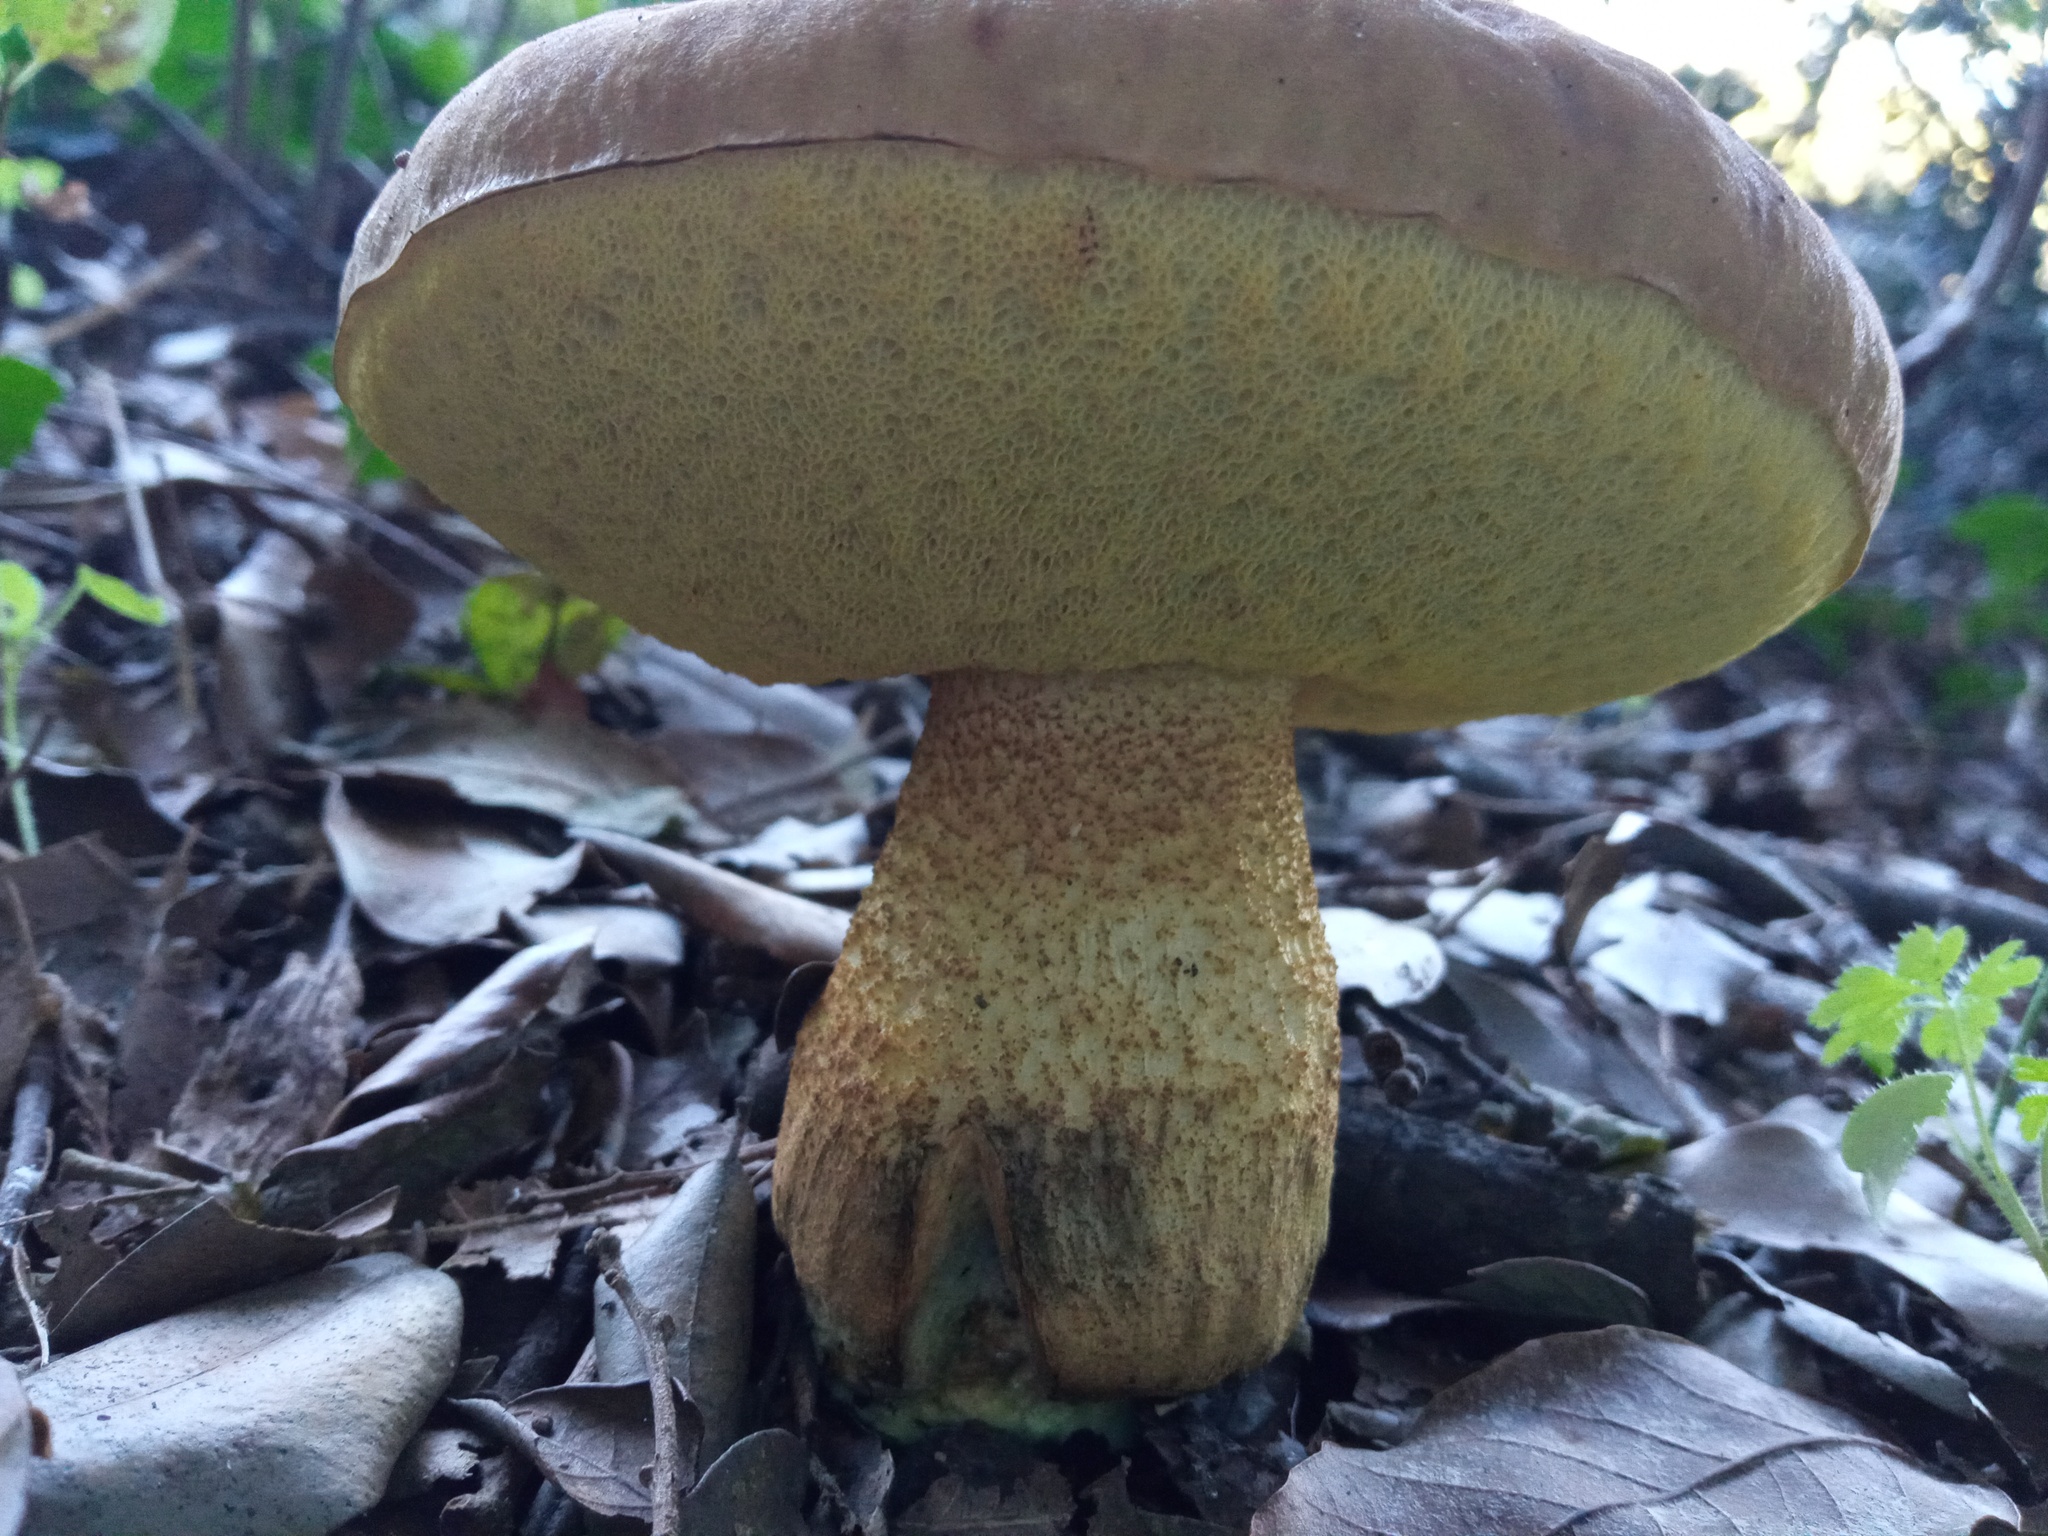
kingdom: Fungi
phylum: Basidiomycota
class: Agaricomycetes
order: Boletales
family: Boletaceae
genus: Leccinellum
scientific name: Leccinellum lepidum
